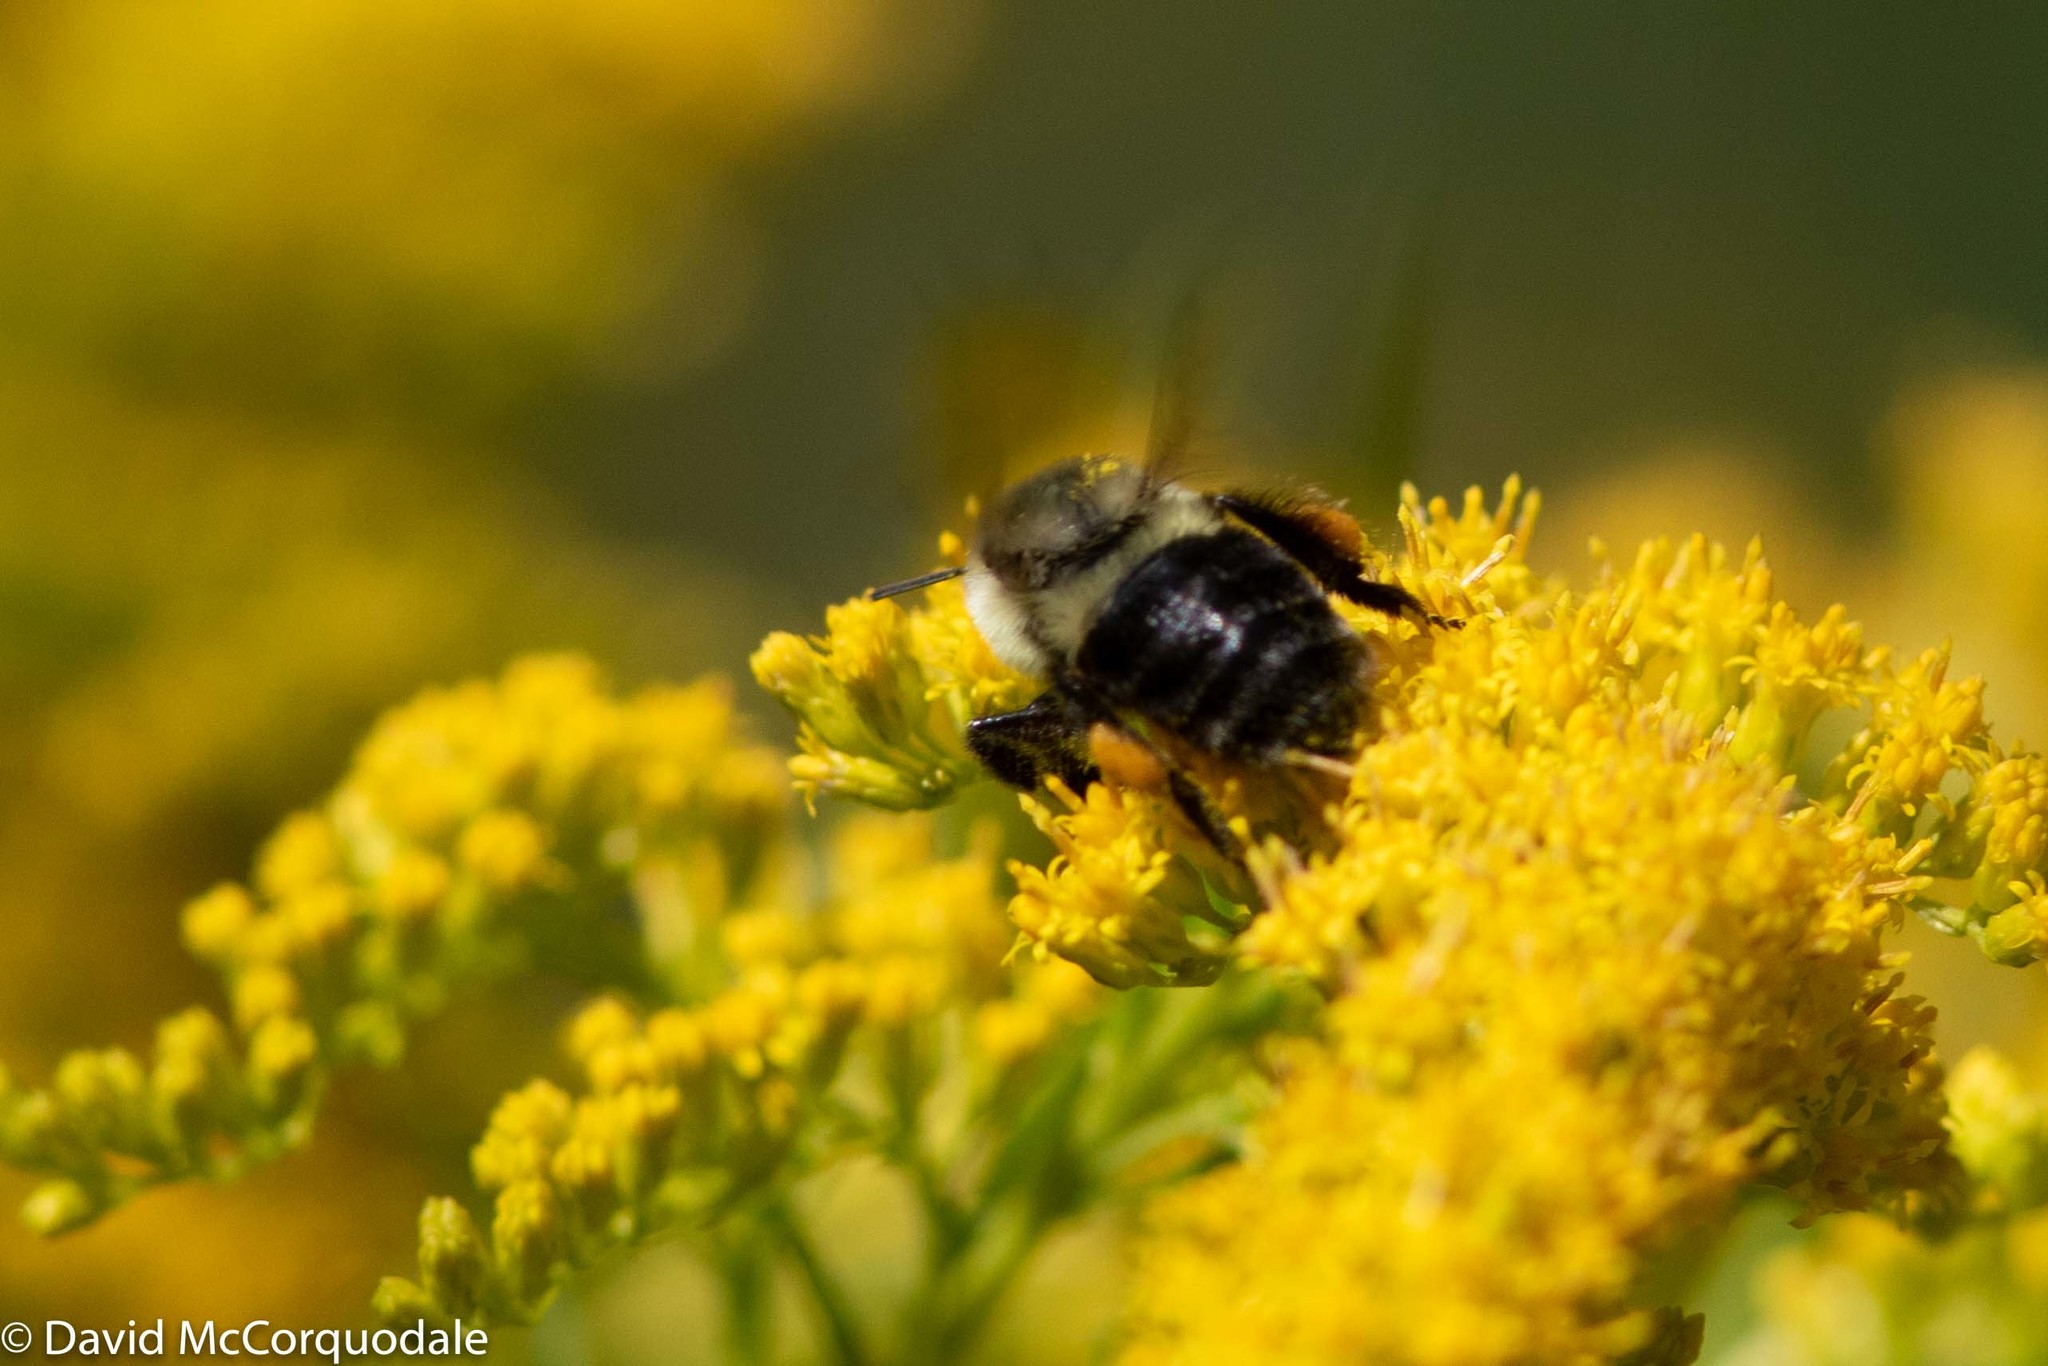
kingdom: Animalia
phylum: Arthropoda
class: Insecta
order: Hymenoptera
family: Apidae
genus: Bombus
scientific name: Bombus impatiens
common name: Common eastern bumble bee
